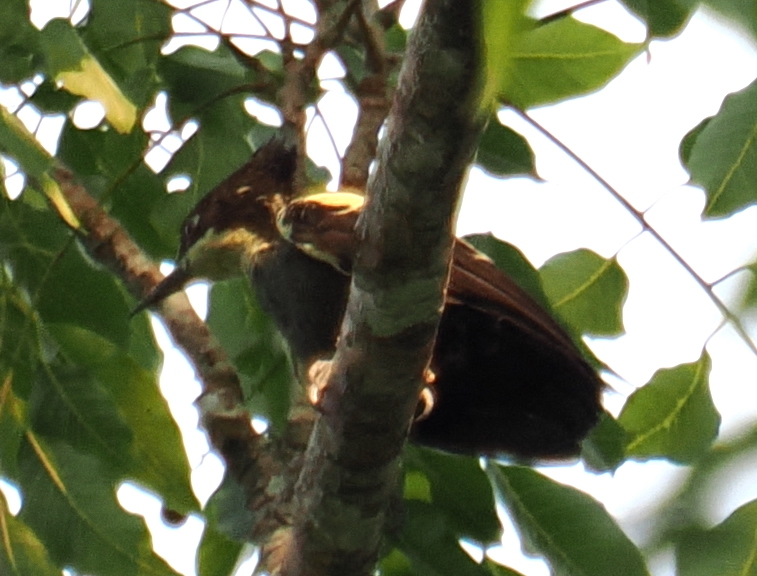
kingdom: Animalia
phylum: Chordata
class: Aves
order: Piciformes
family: Picidae
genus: Hemicircus
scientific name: Hemicircus canente
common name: Heart-spotted woodpecker
